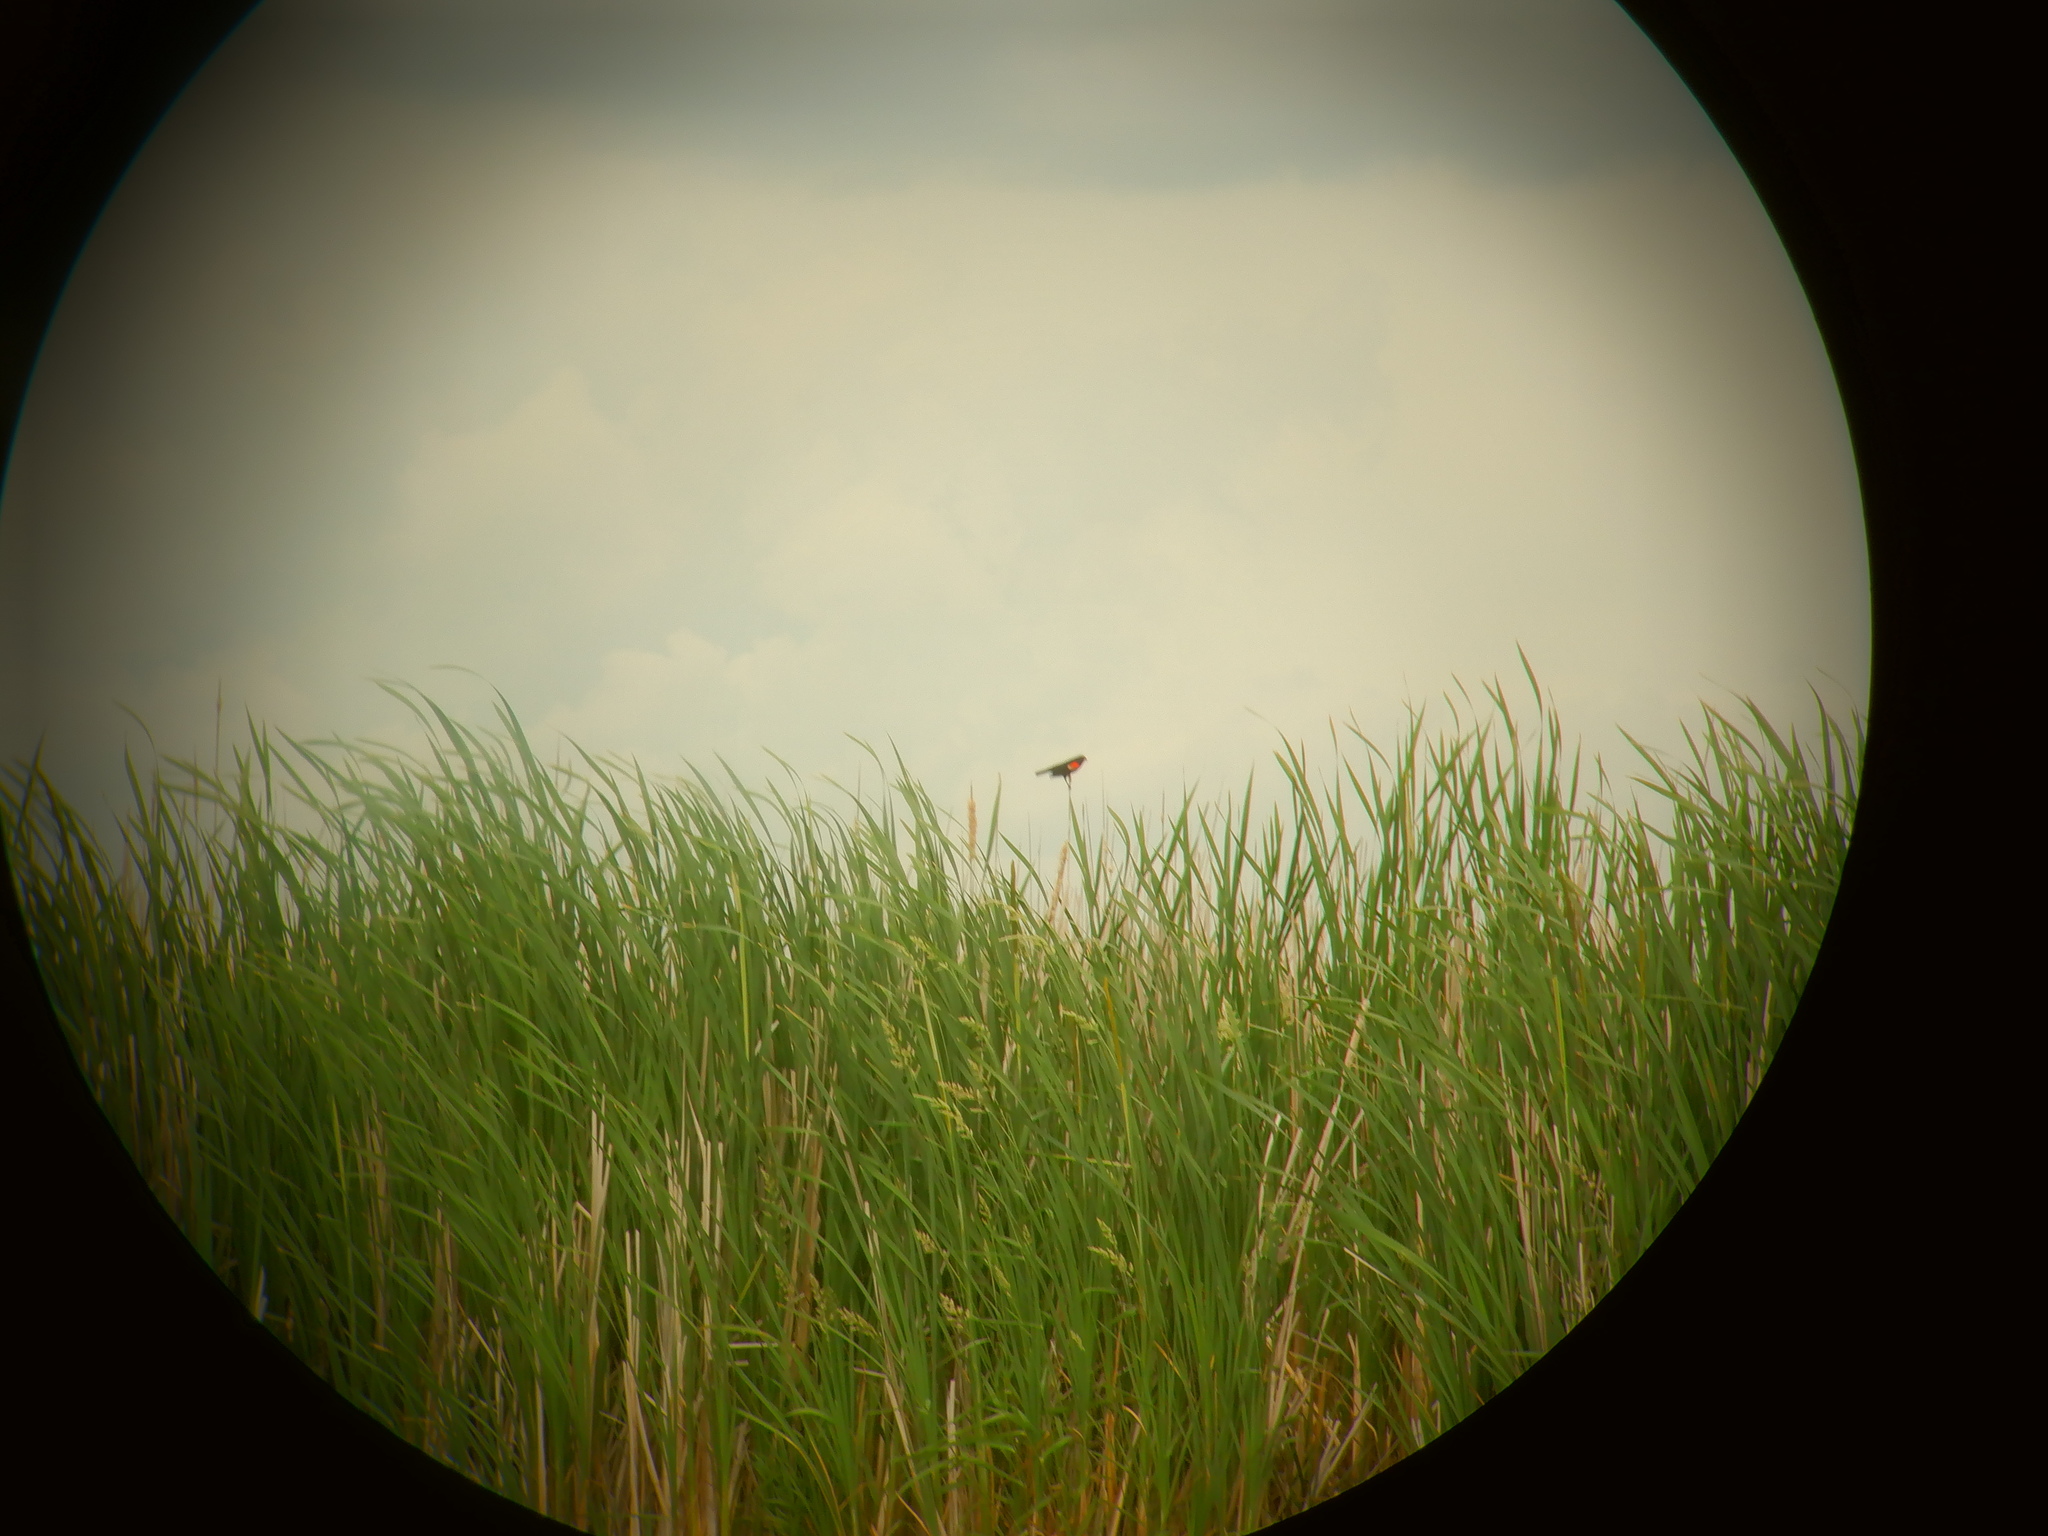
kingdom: Animalia
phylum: Chordata
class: Aves
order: Passeriformes
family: Icteridae
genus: Agelaius
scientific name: Agelaius phoeniceus
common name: Red-winged blackbird
